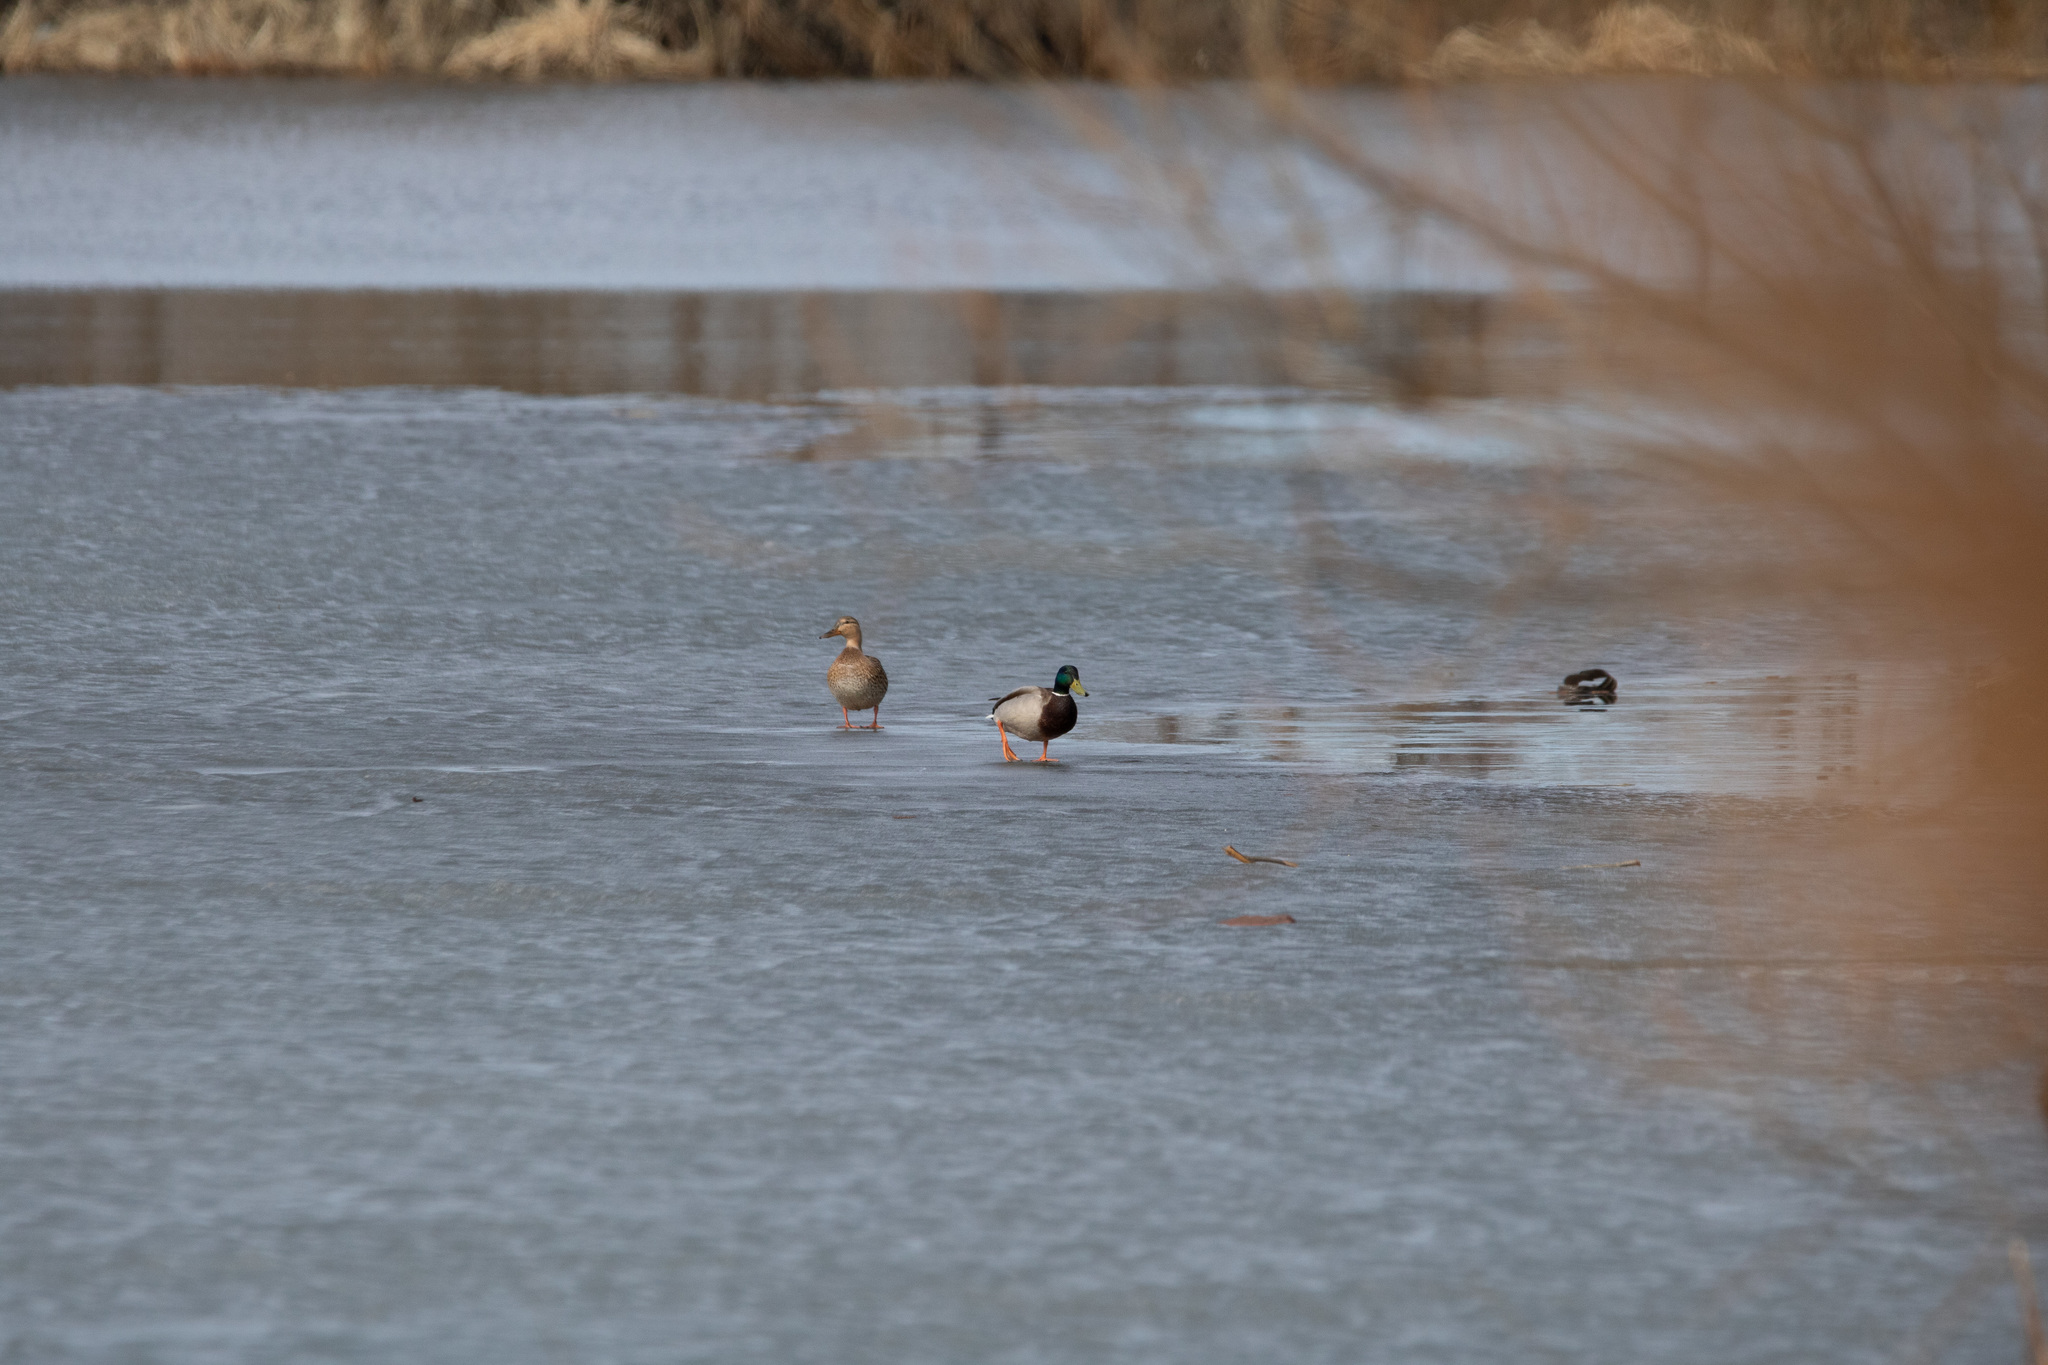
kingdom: Animalia
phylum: Chordata
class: Aves
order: Anseriformes
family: Anatidae
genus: Anas
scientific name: Anas platyrhynchos
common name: Mallard
